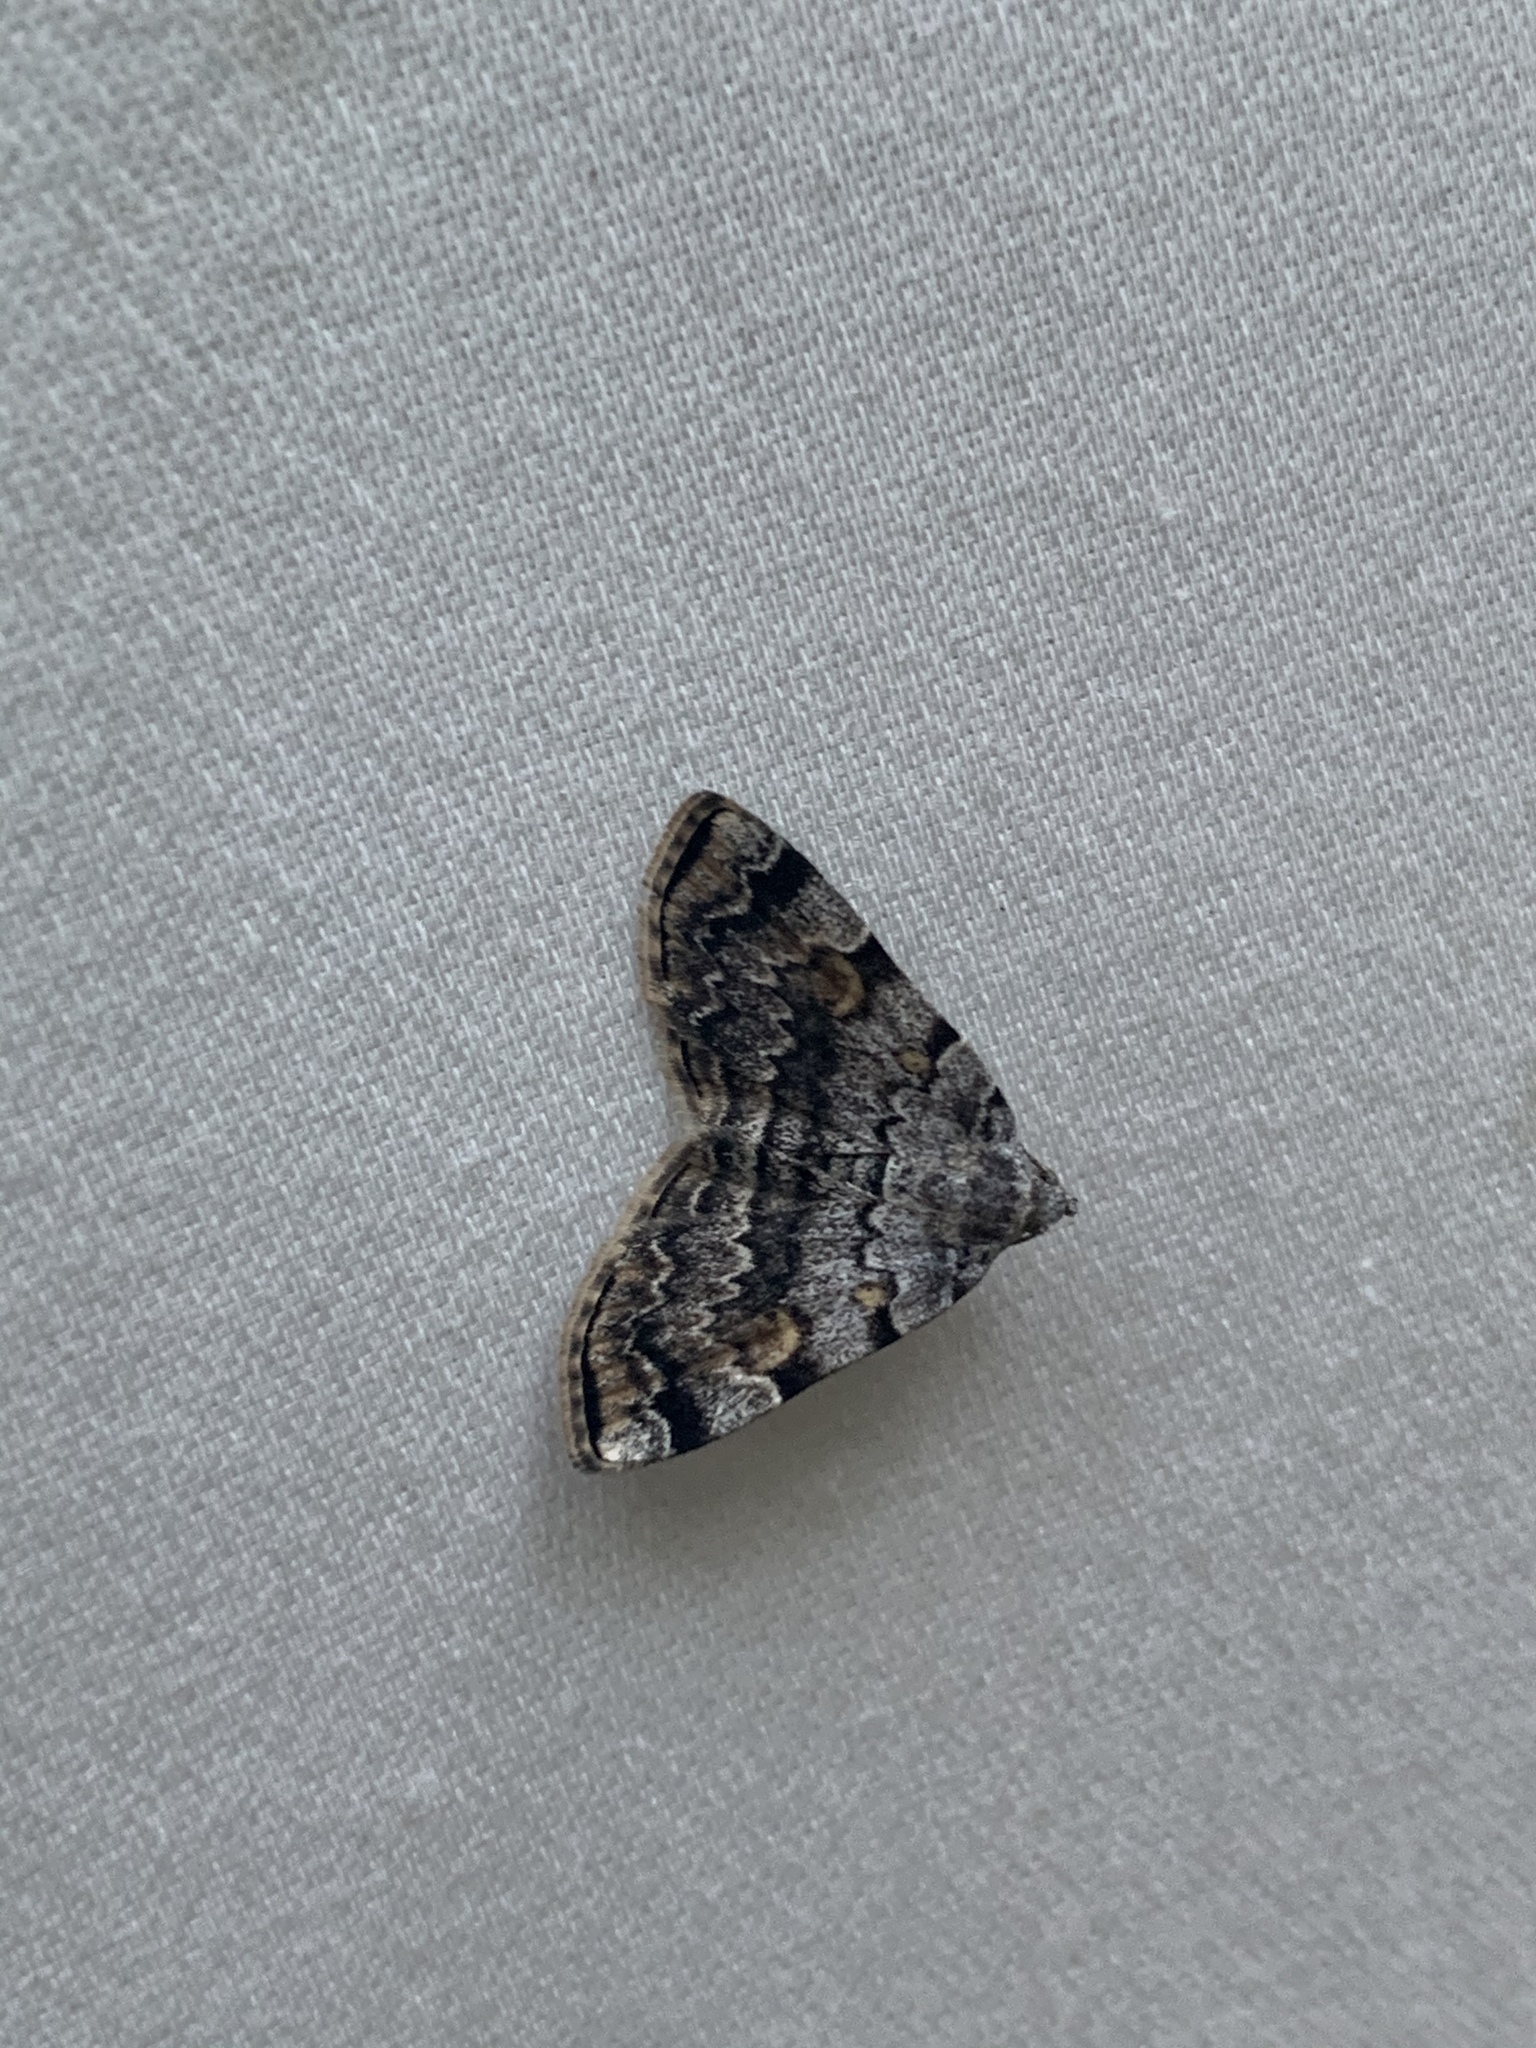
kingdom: Animalia
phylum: Arthropoda
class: Insecta
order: Lepidoptera
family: Erebidae
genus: Idia
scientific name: Idia americalis
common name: American idia moth
